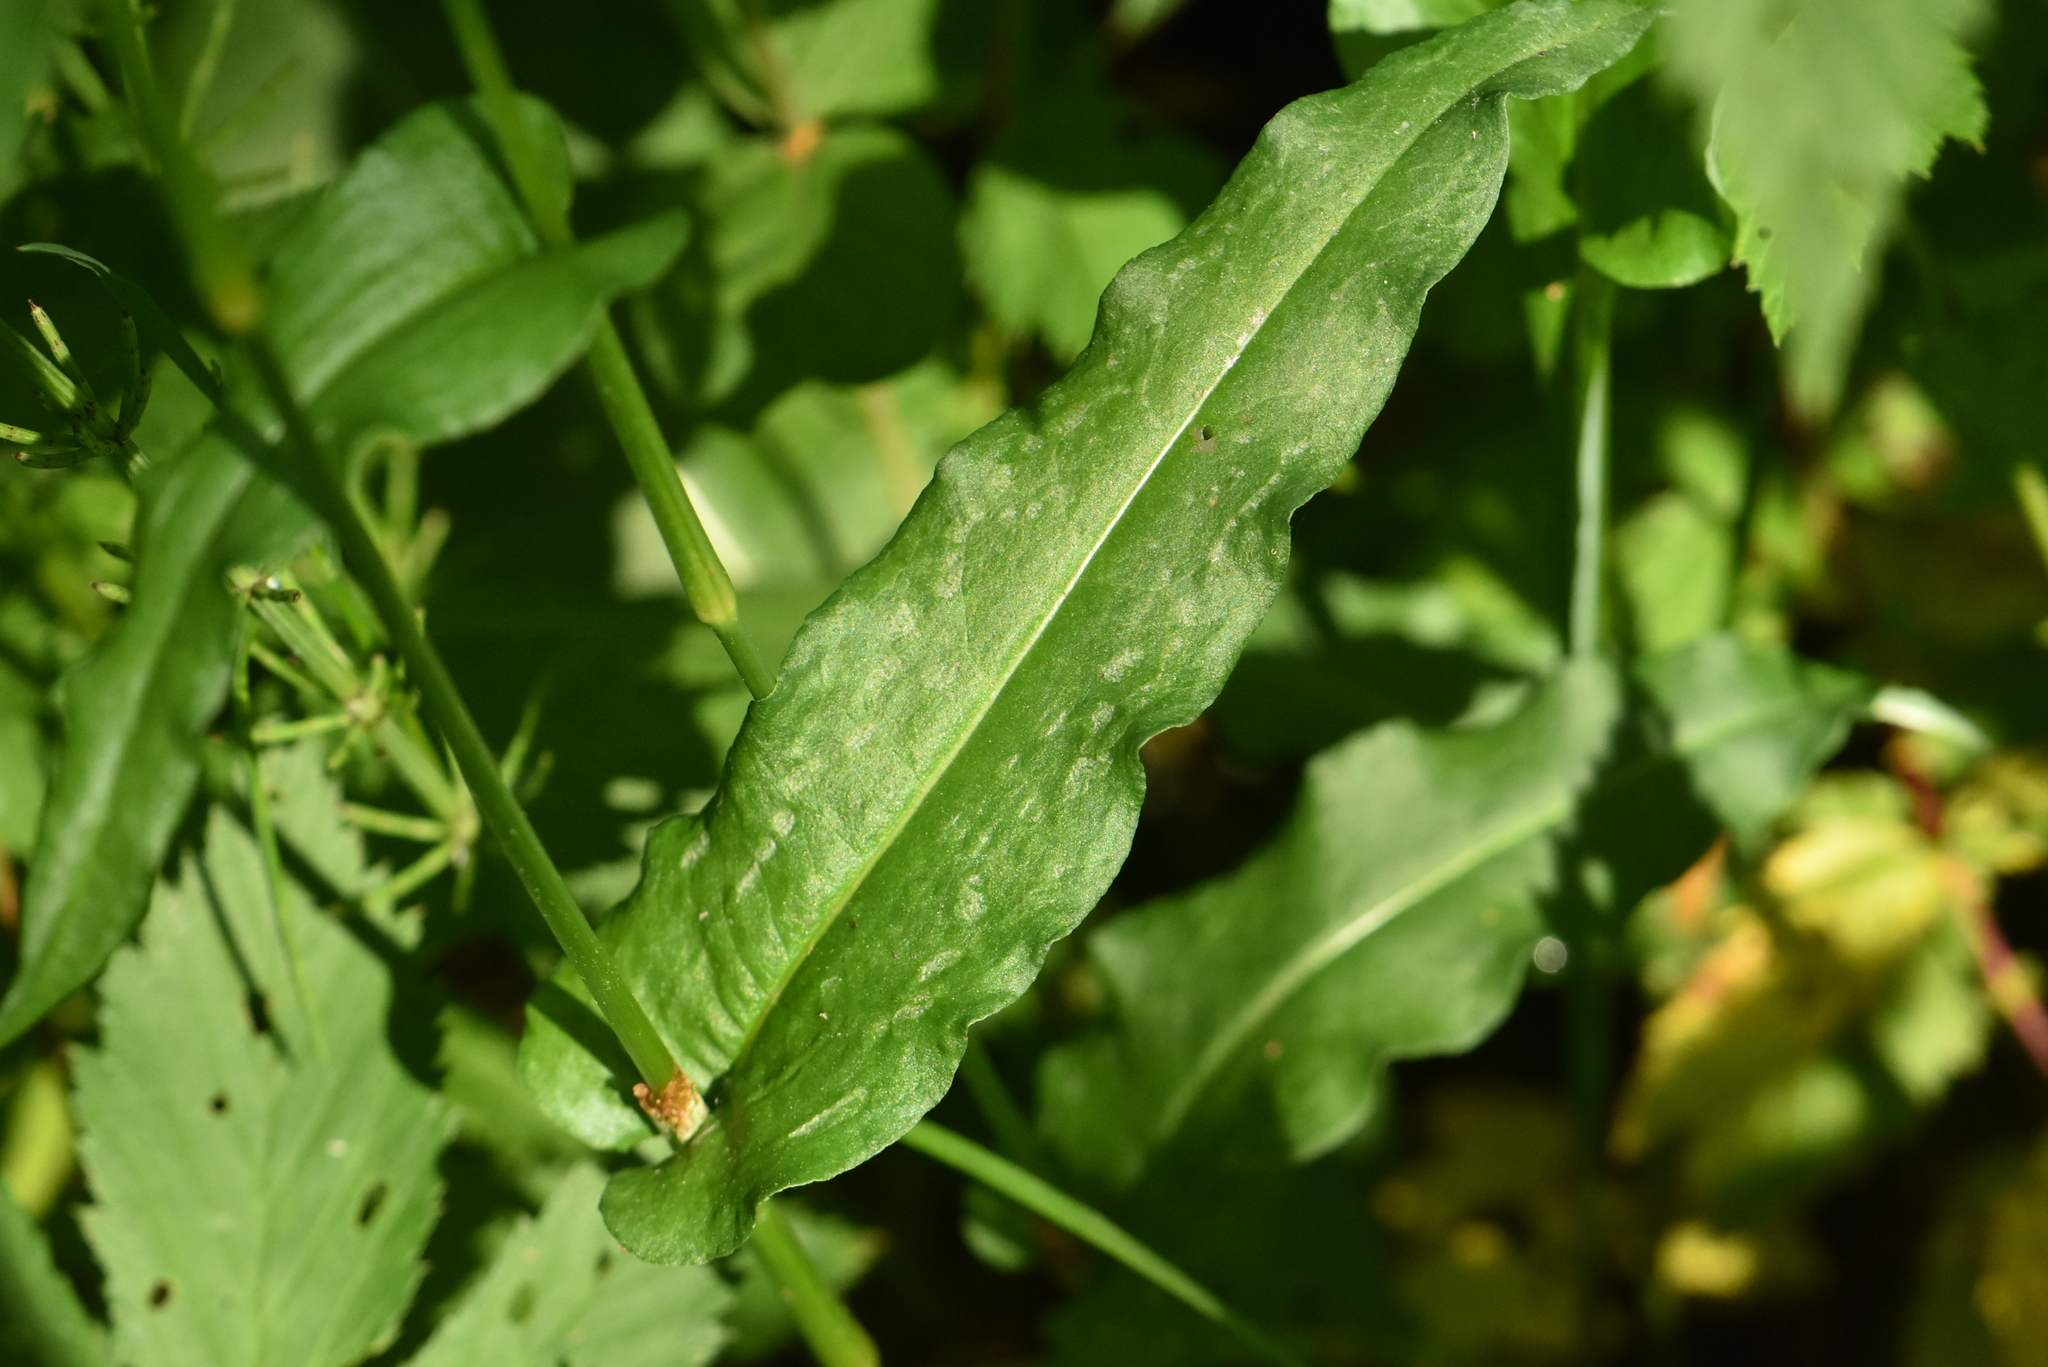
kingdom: Plantae
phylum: Tracheophyta
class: Magnoliopsida
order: Caryophyllales
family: Polygonaceae
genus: Bistorta
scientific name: Bistorta officinalis
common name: Common bistort
